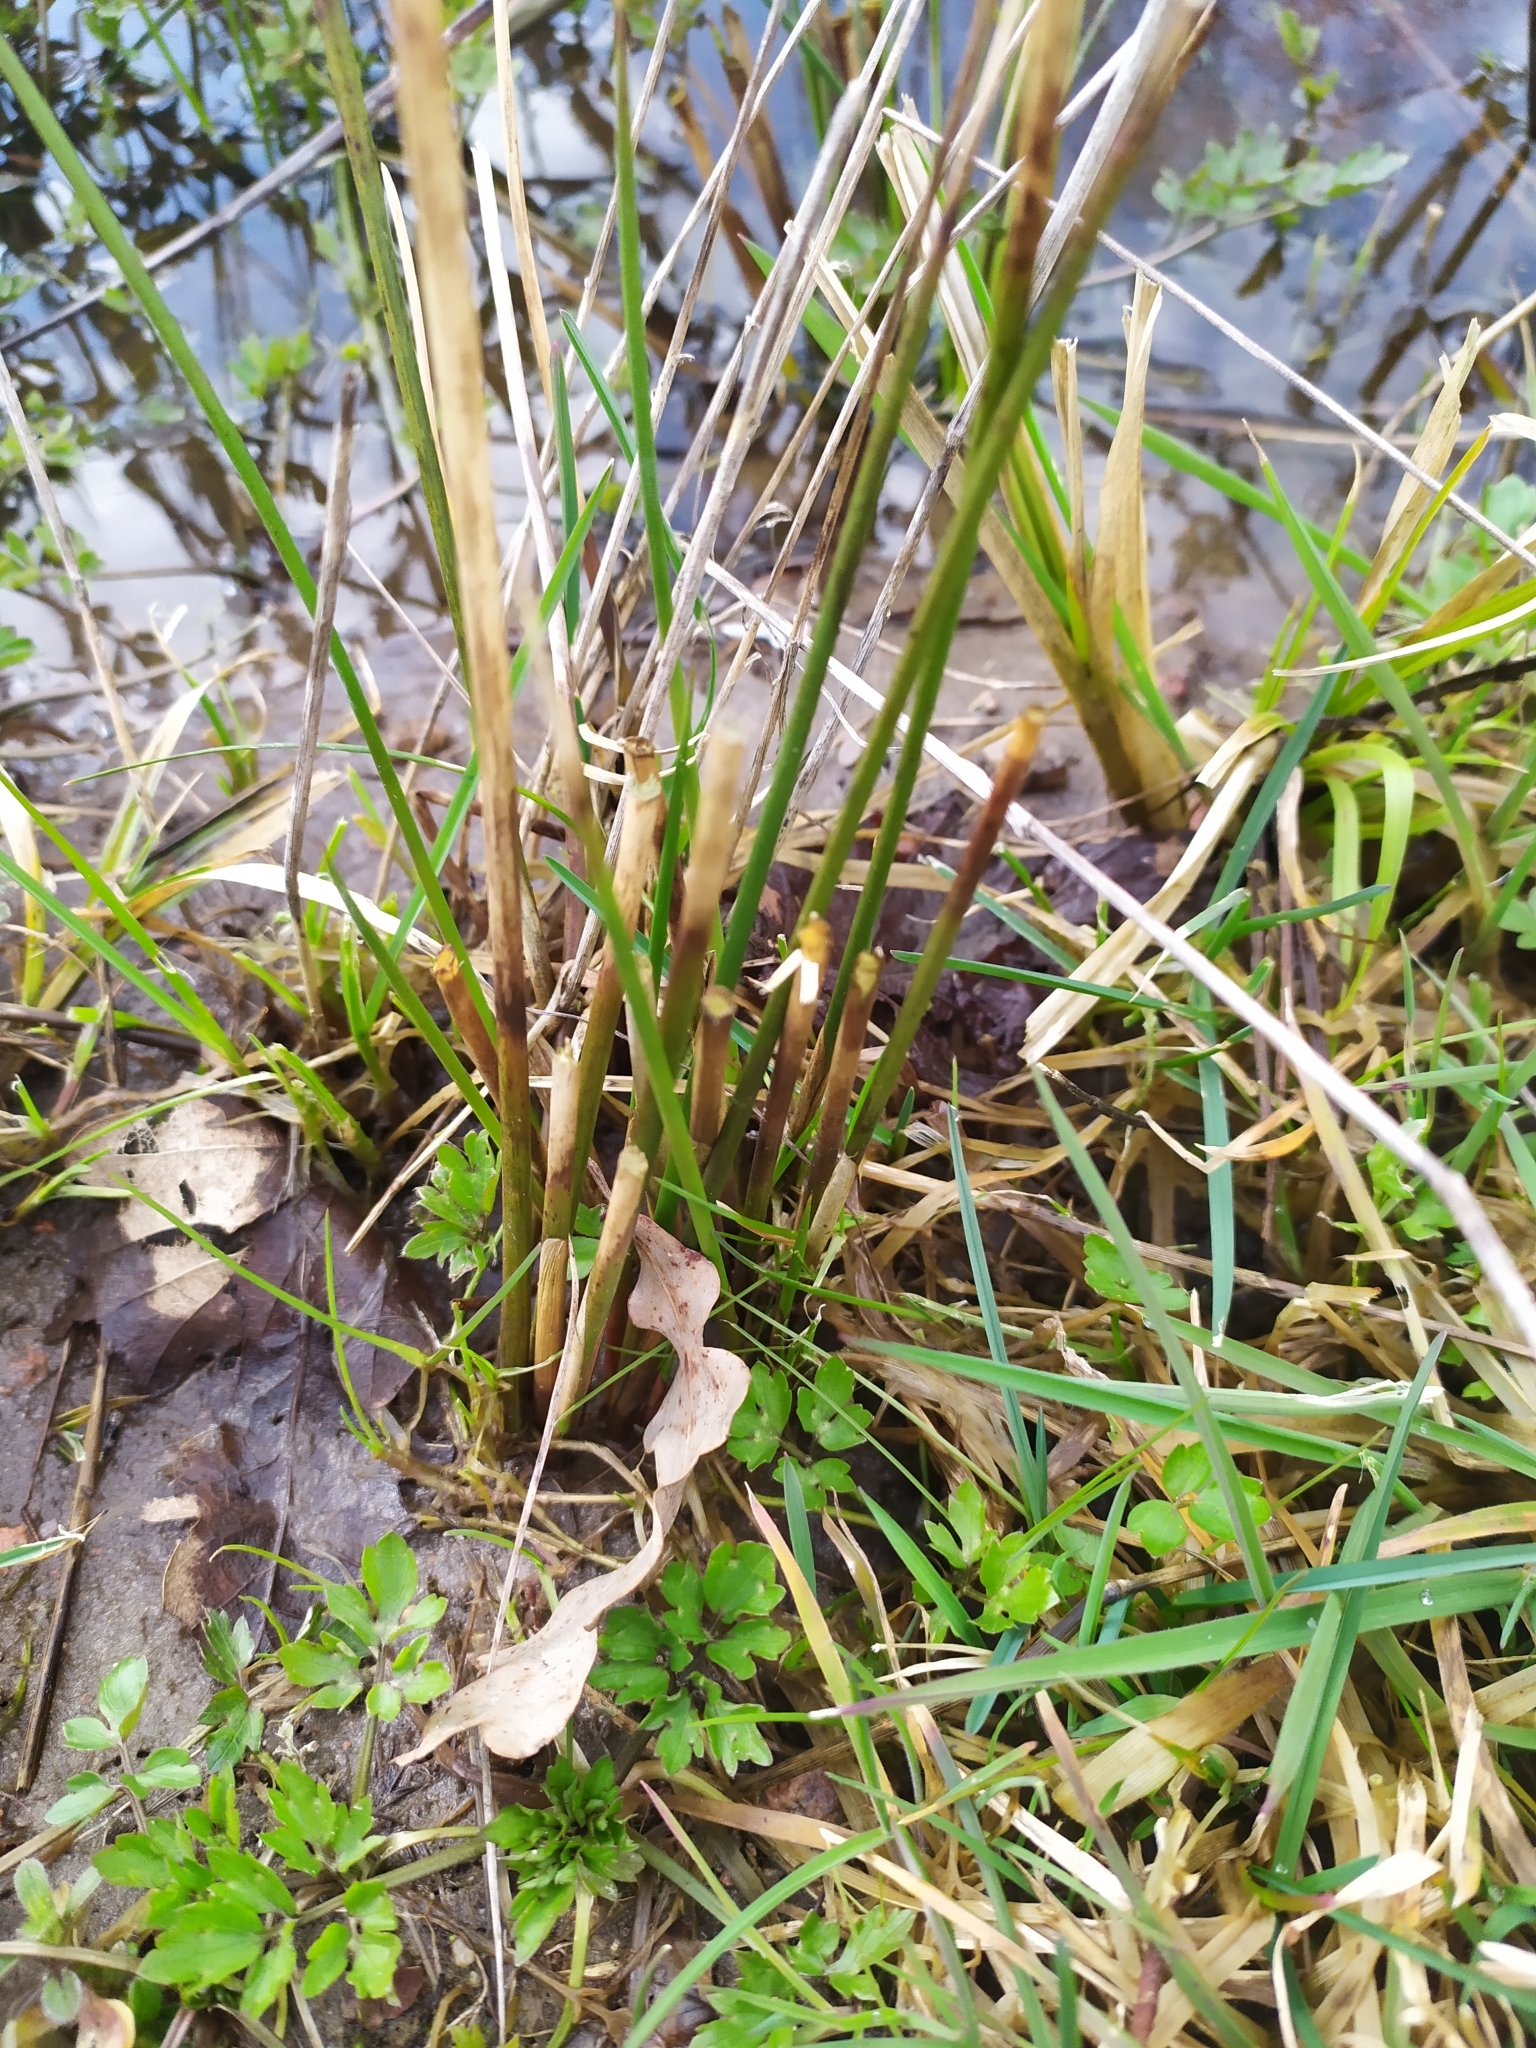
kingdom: Plantae
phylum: Tracheophyta
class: Liliopsida
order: Poales
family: Juncaceae
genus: Juncus
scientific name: Juncus effusus
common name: Soft rush
